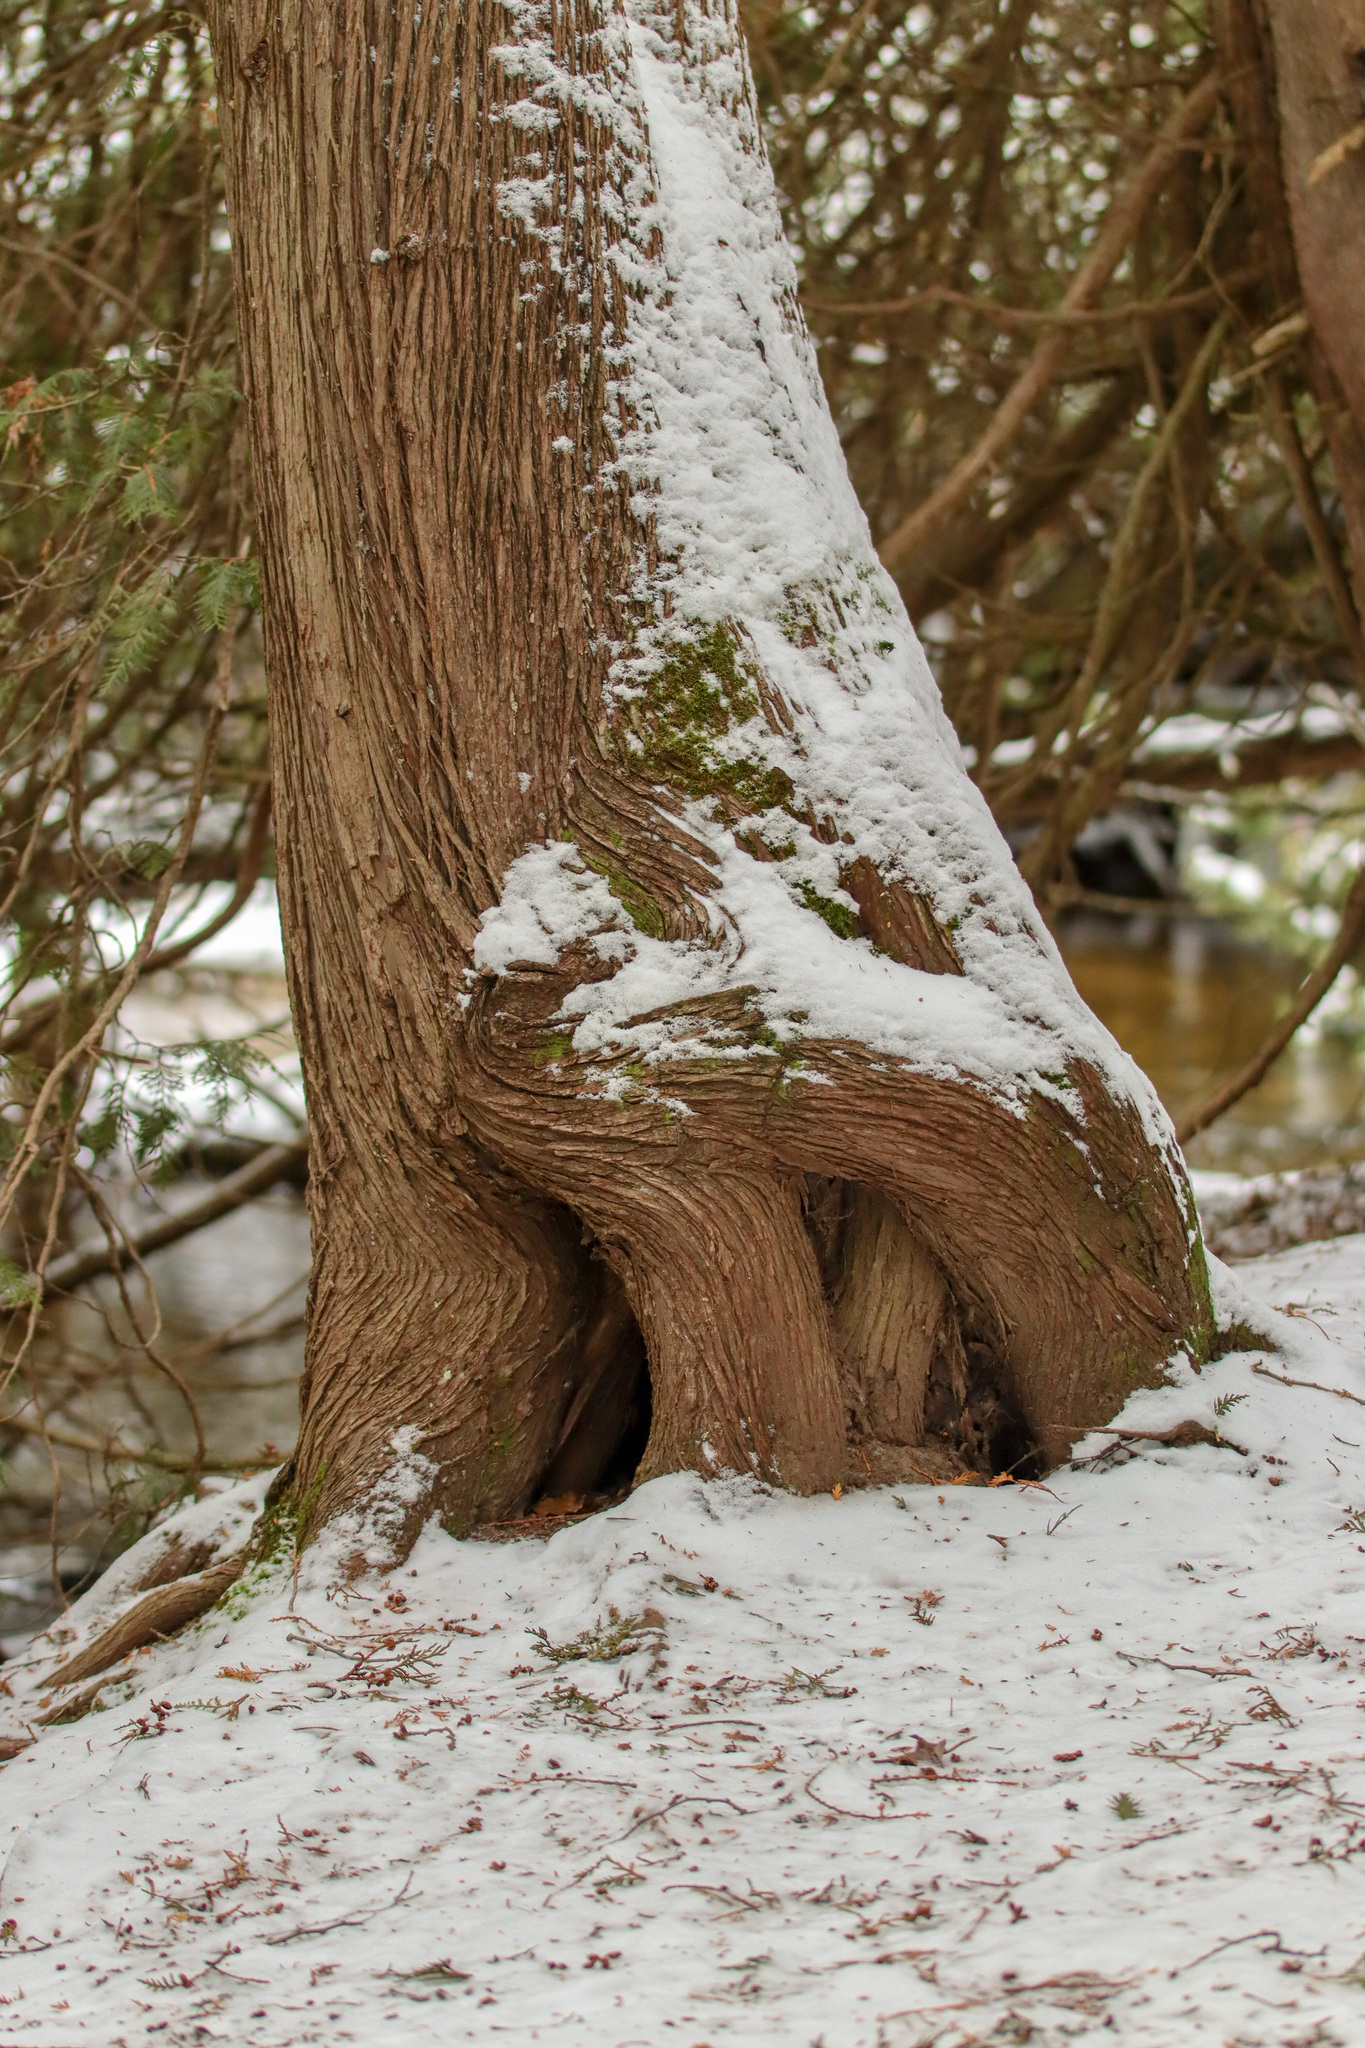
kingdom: Plantae
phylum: Tracheophyta
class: Pinopsida
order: Pinales
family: Cupressaceae
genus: Thuja
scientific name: Thuja occidentalis
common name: Northern white-cedar
